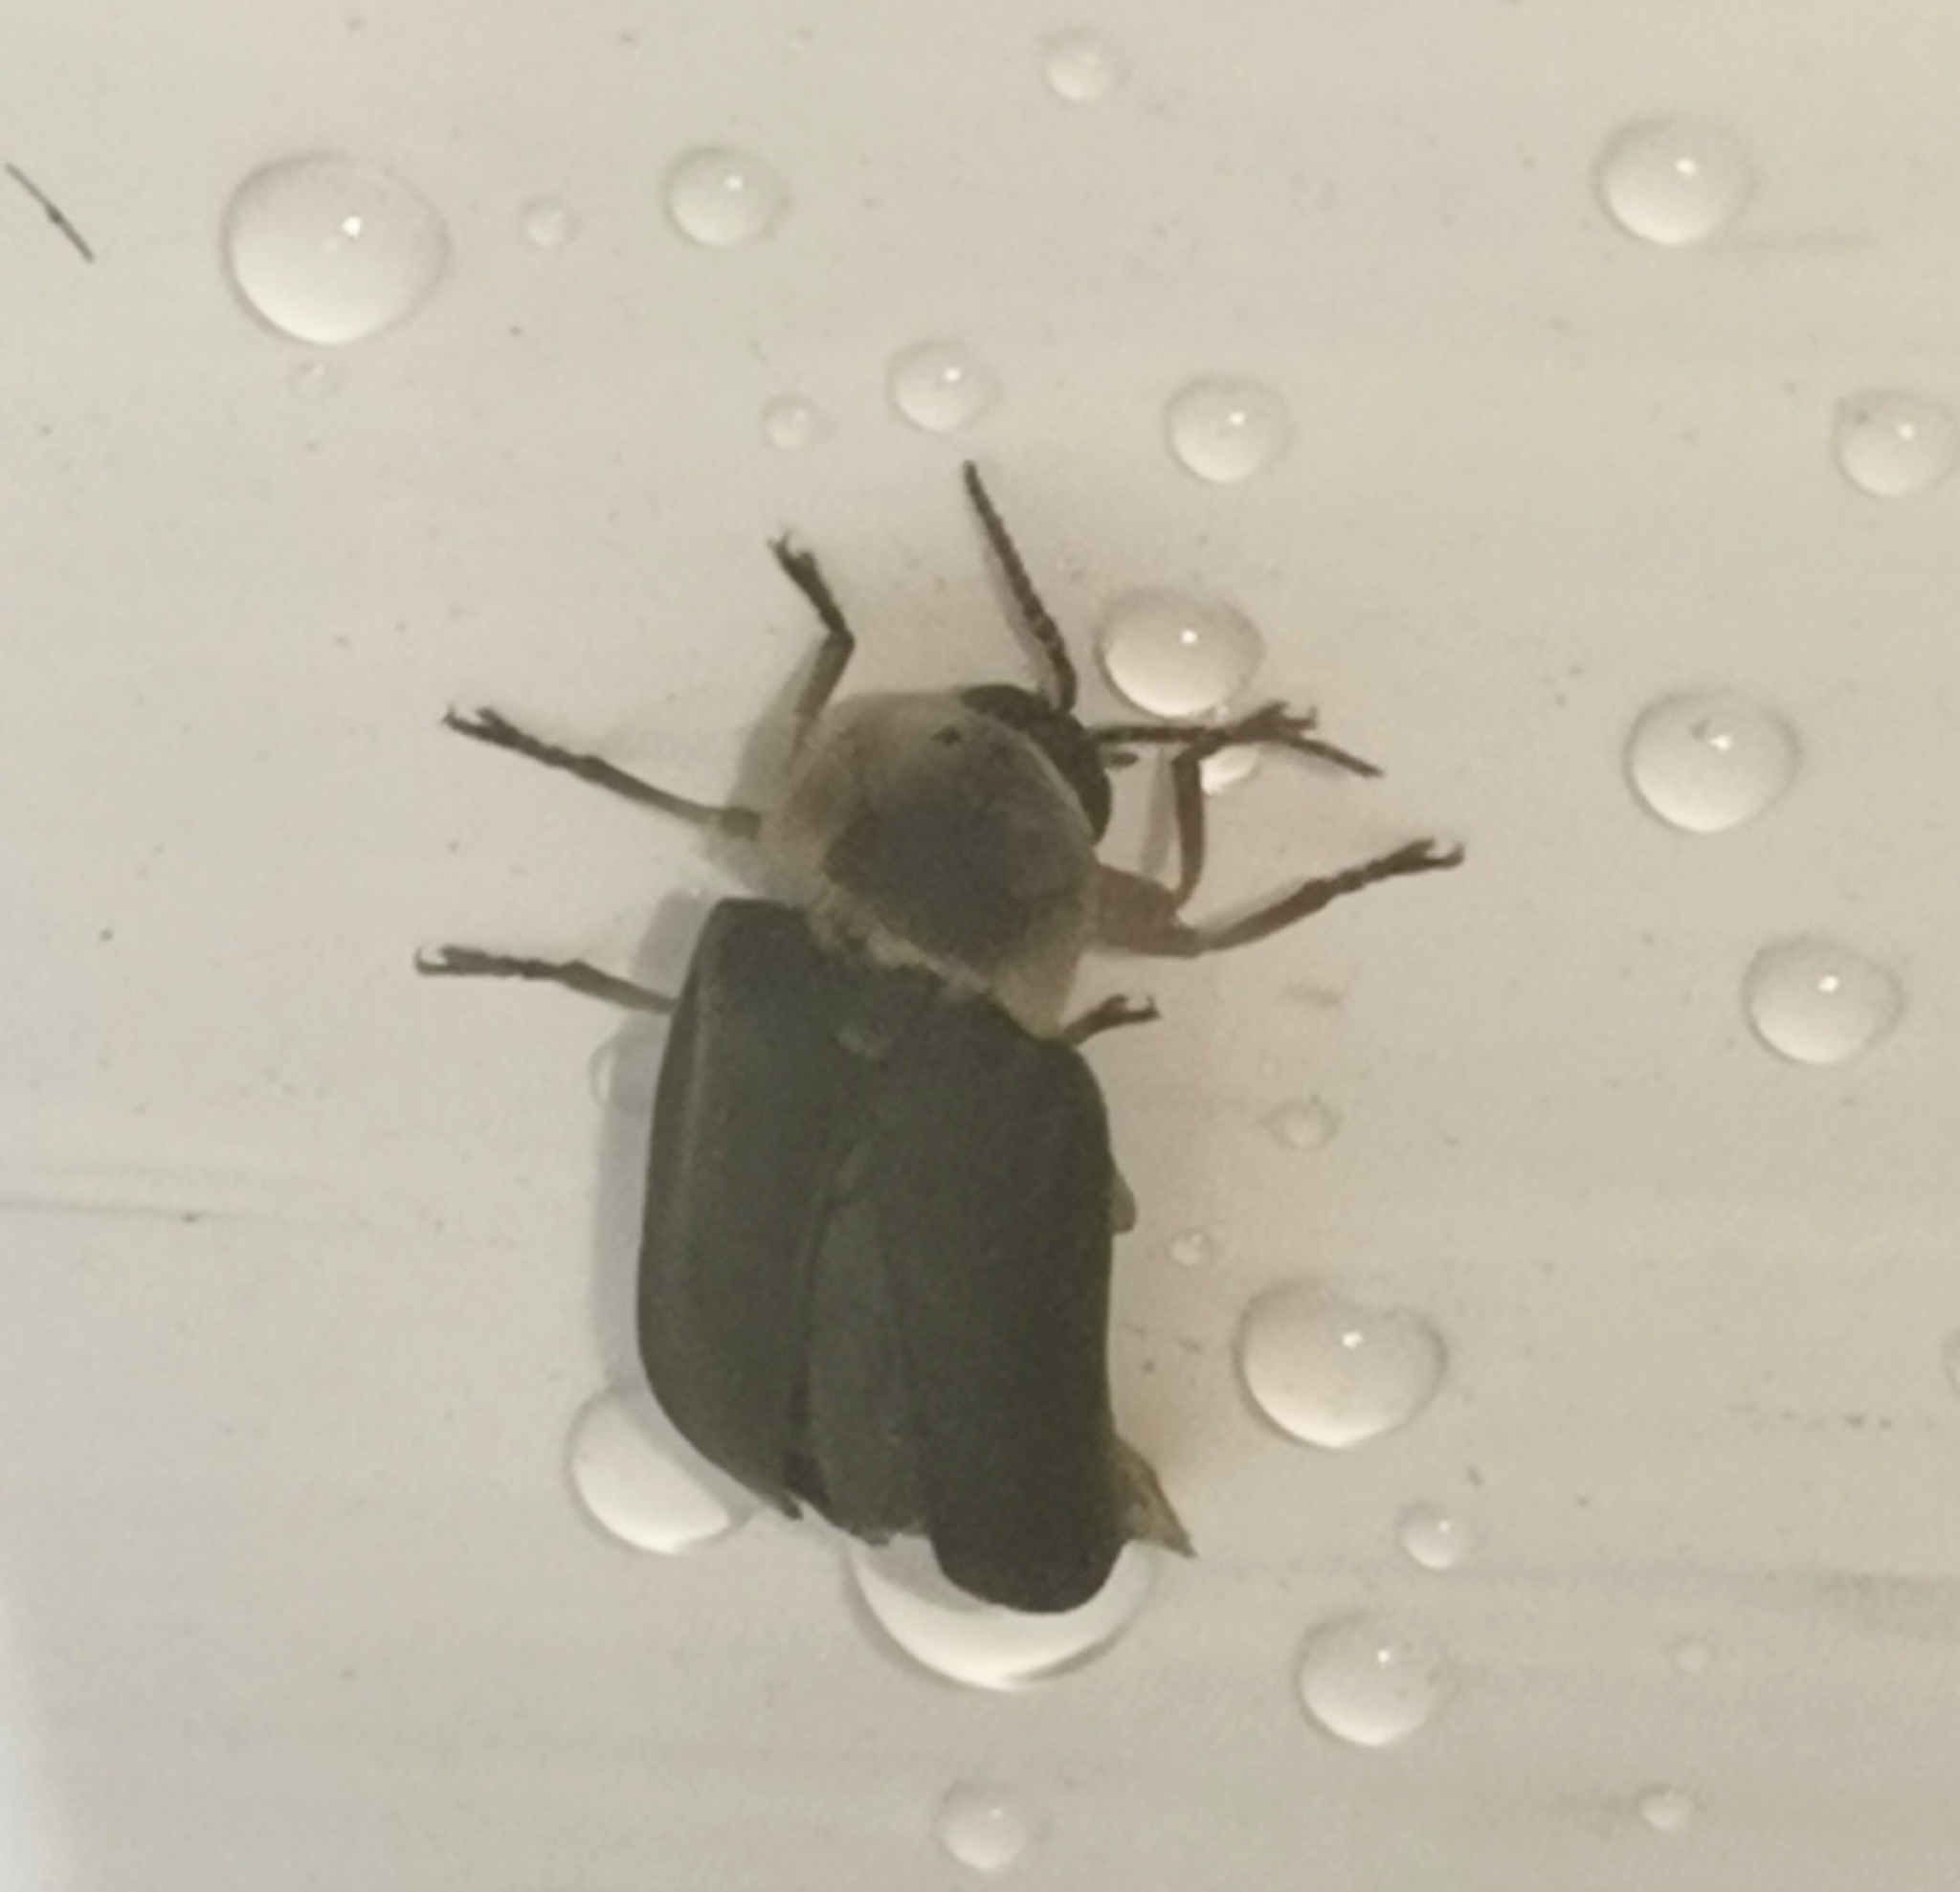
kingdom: Animalia
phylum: Arthropoda
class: Insecta
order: Coleoptera
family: Lampyridae
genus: Lampyris
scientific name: Lampyris noctiluca
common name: Glow-worm
